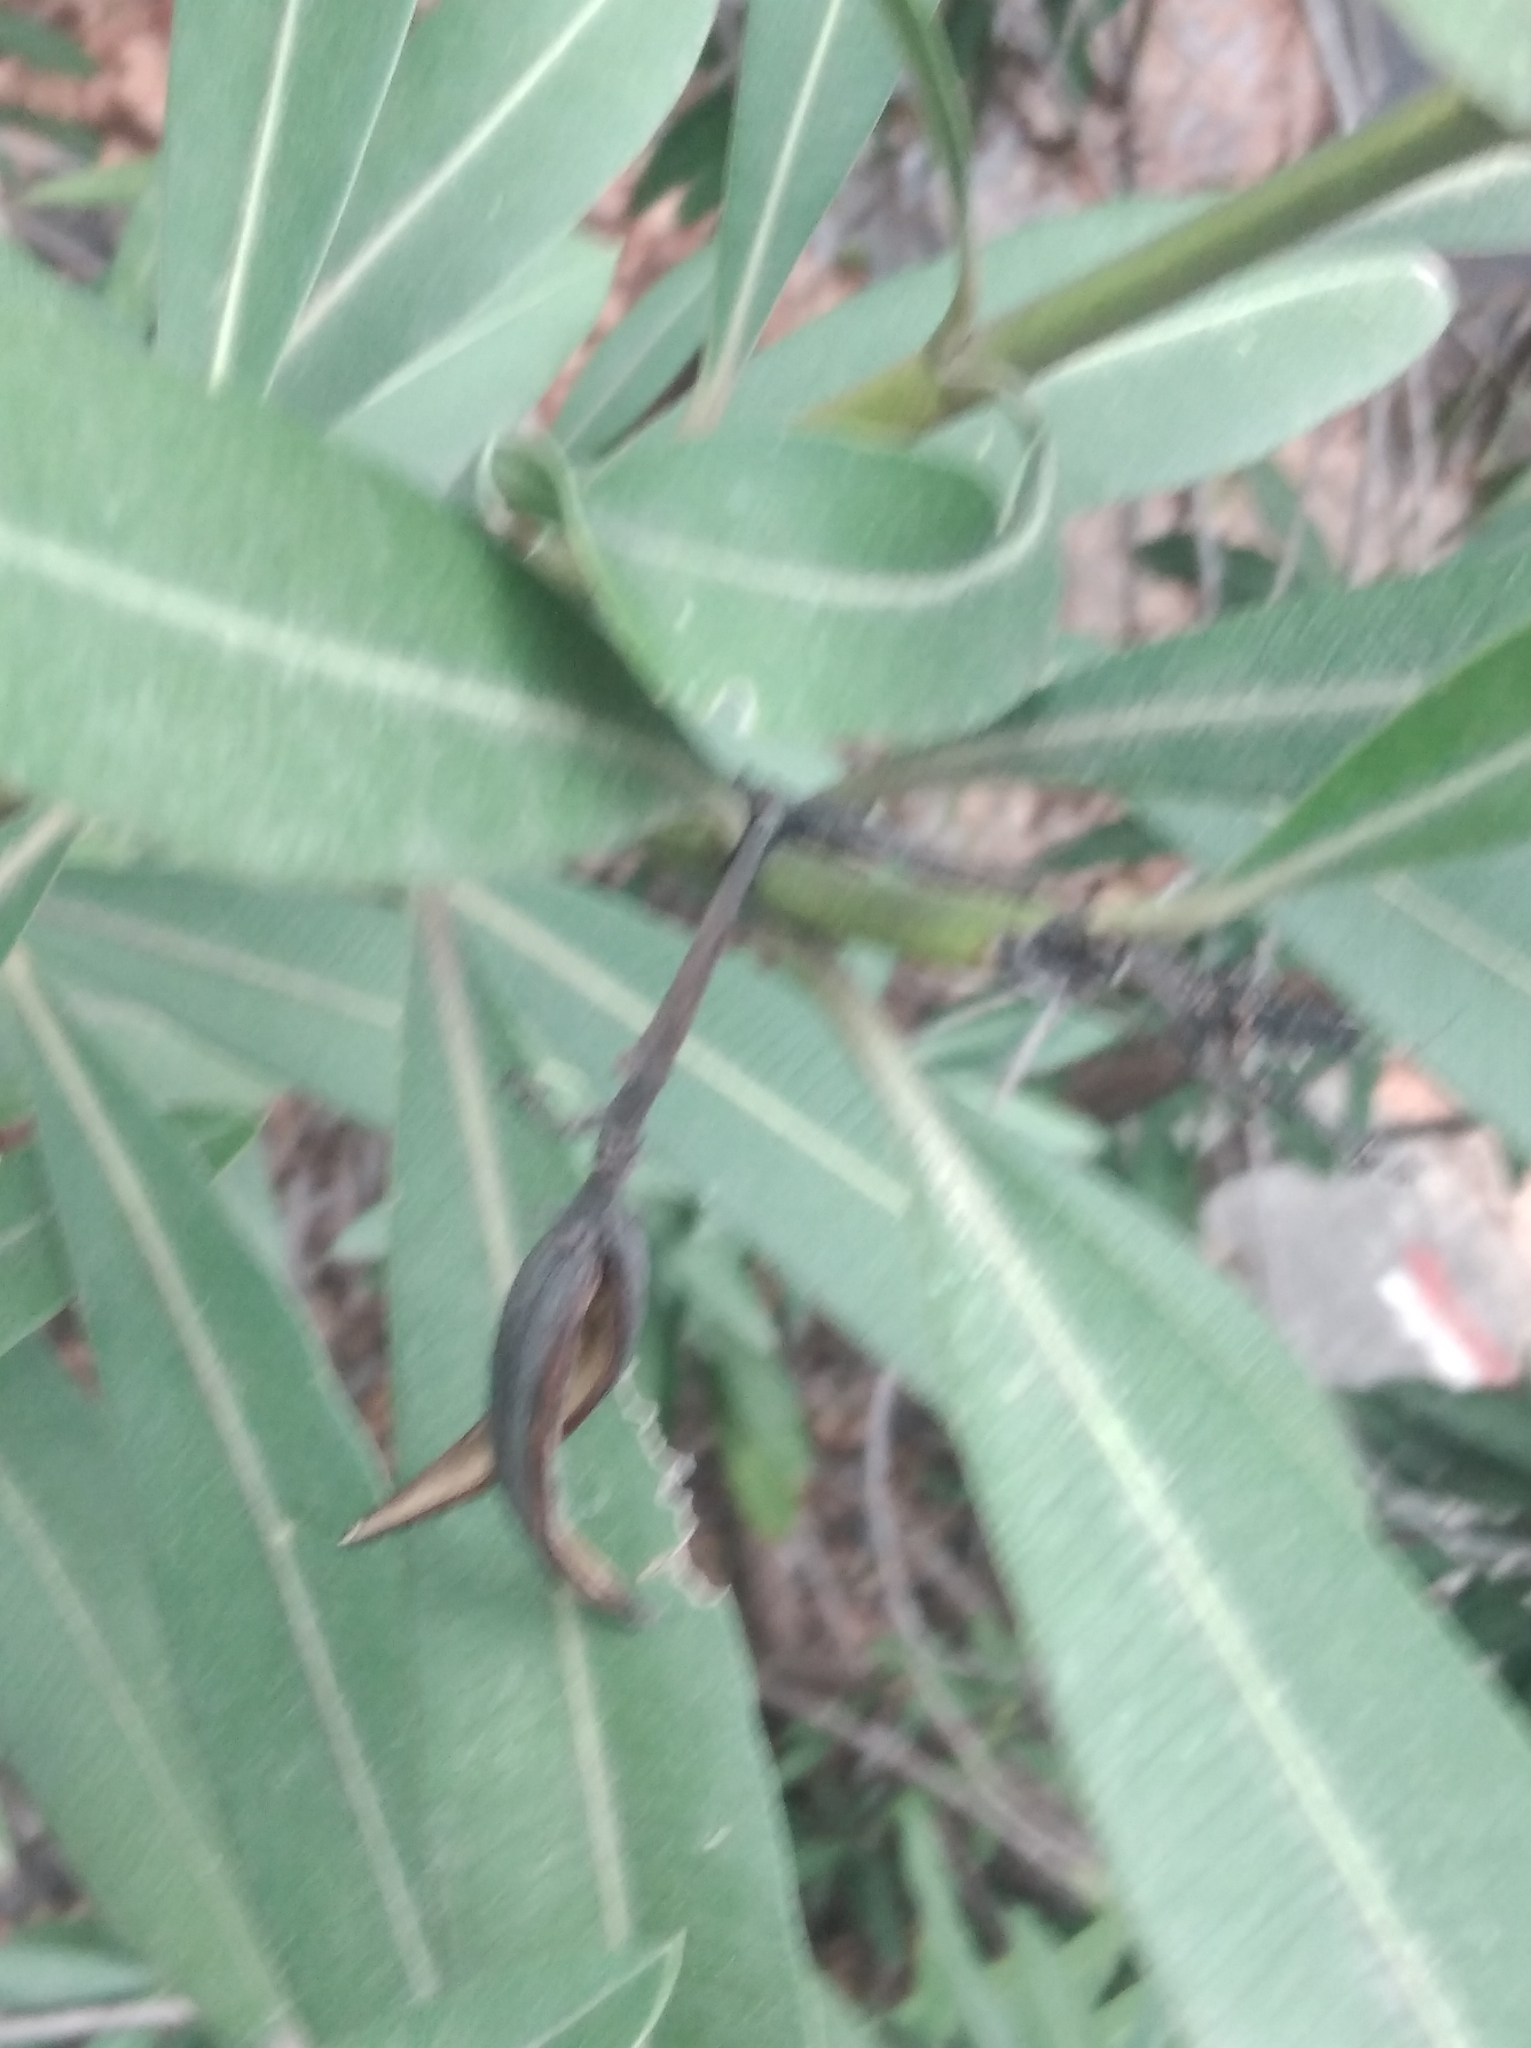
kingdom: Plantae
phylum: Tracheophyta
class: Magnoliopsida
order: Gentianales
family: Apocynaceae
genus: Nerium
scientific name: Nerium oleander
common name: Oleander
